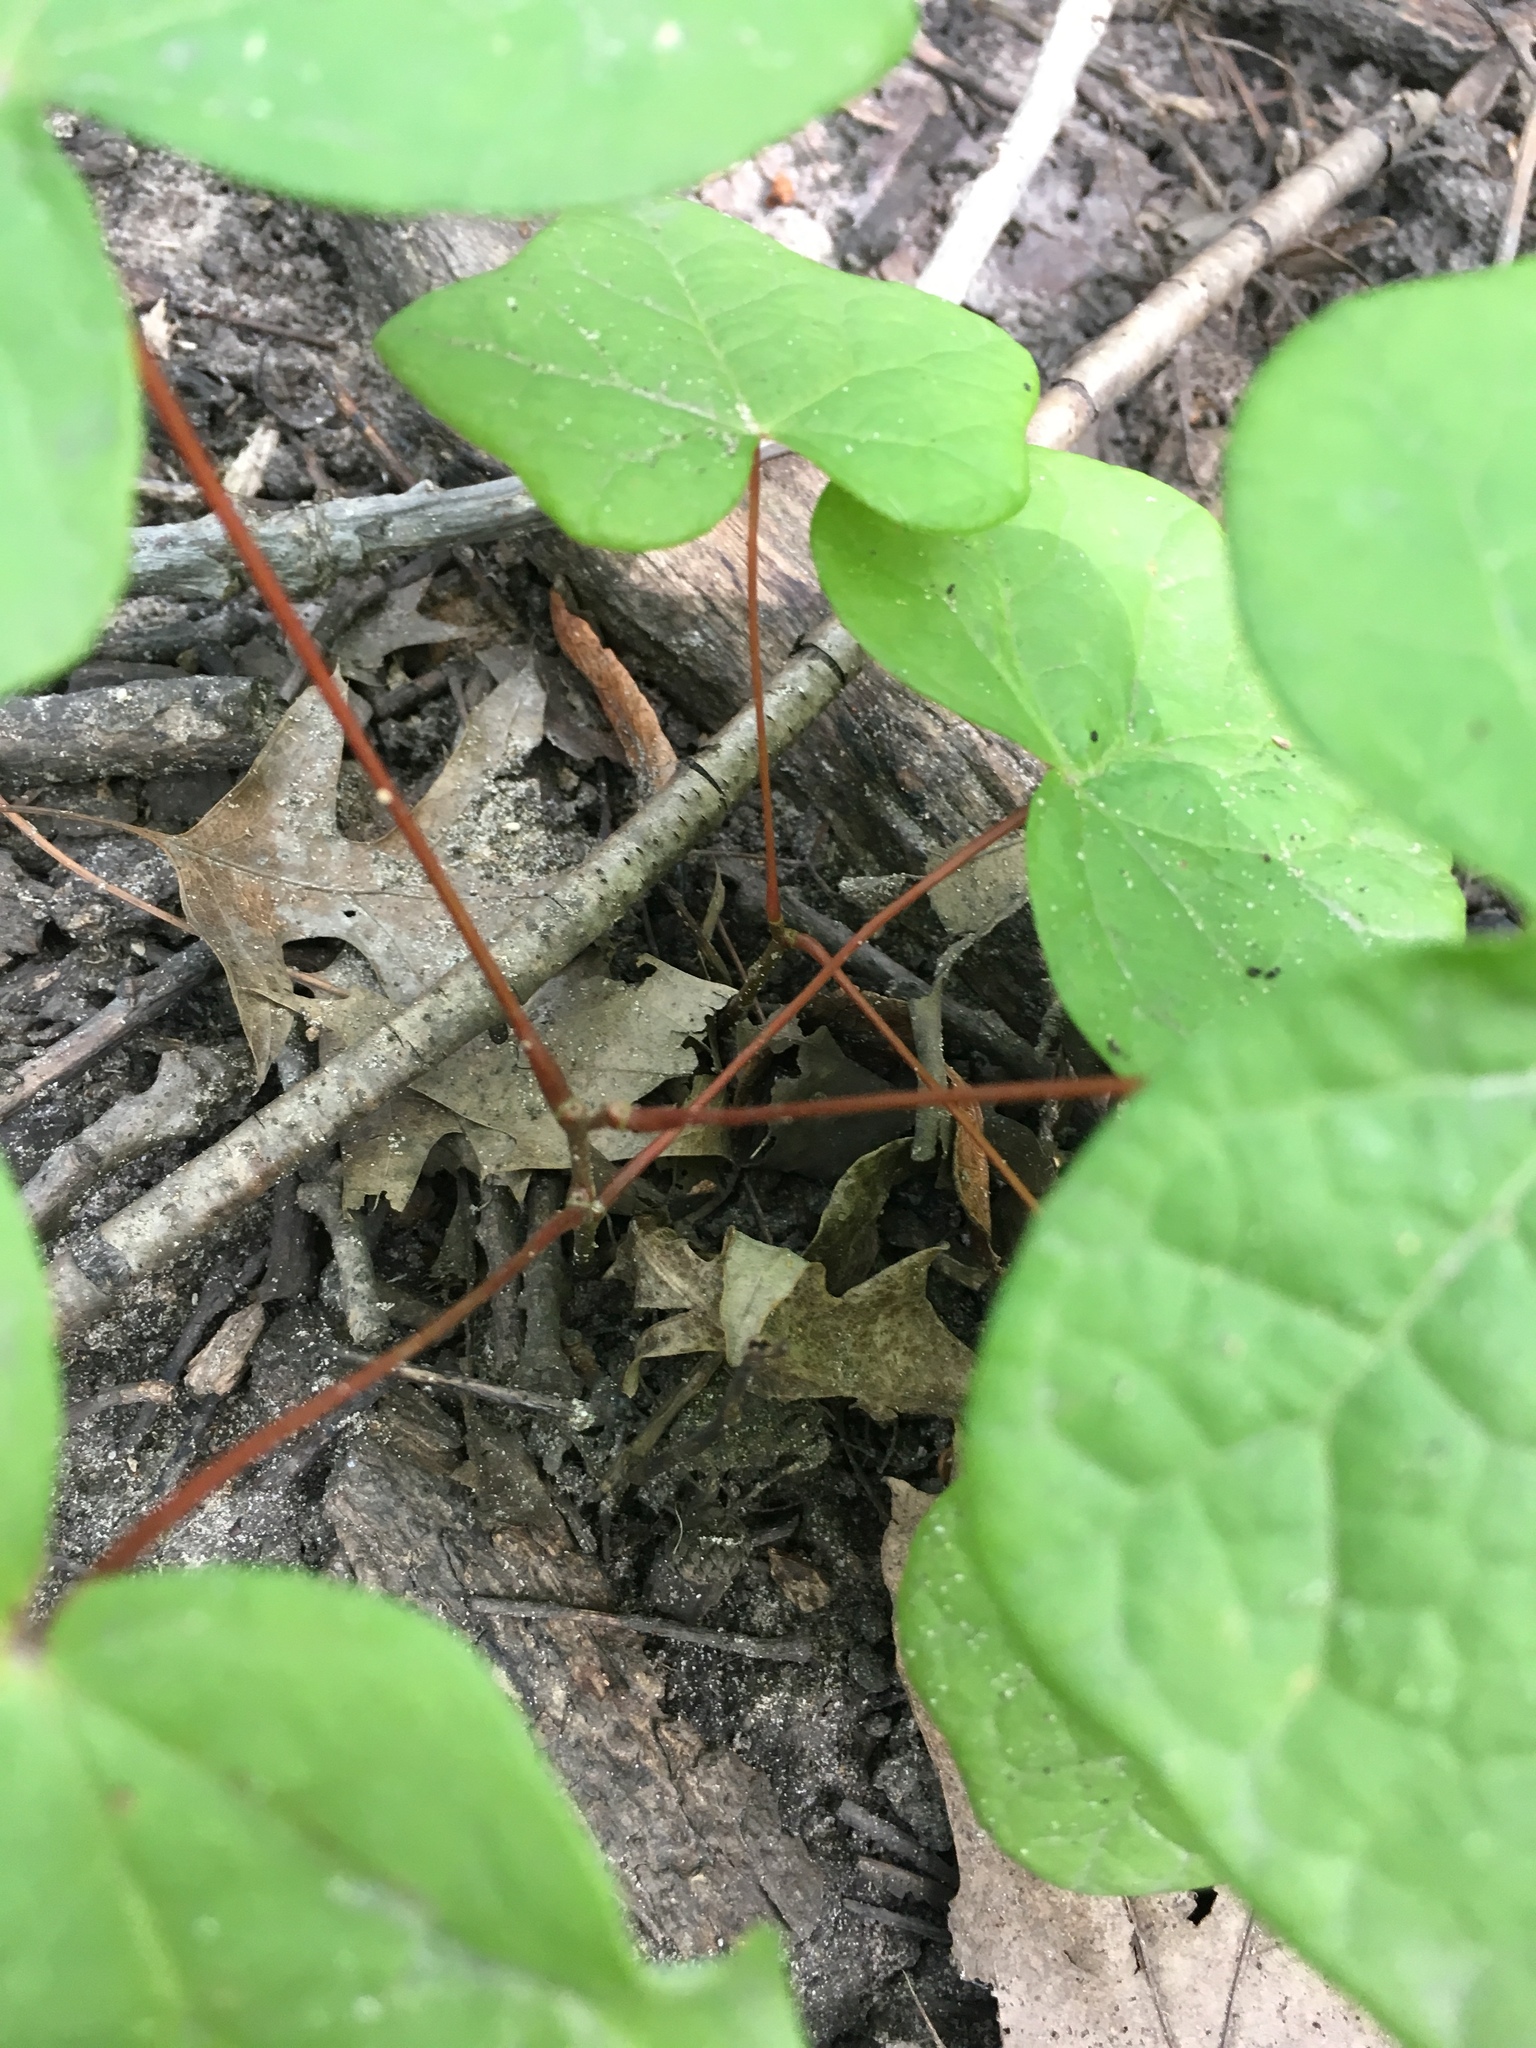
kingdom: Plantae
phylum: Tracheophyta
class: Magnoliopsida
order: Ranunculales
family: Menispermaceae
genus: Menispermum
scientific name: Menispermum canadense
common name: Moonseed
